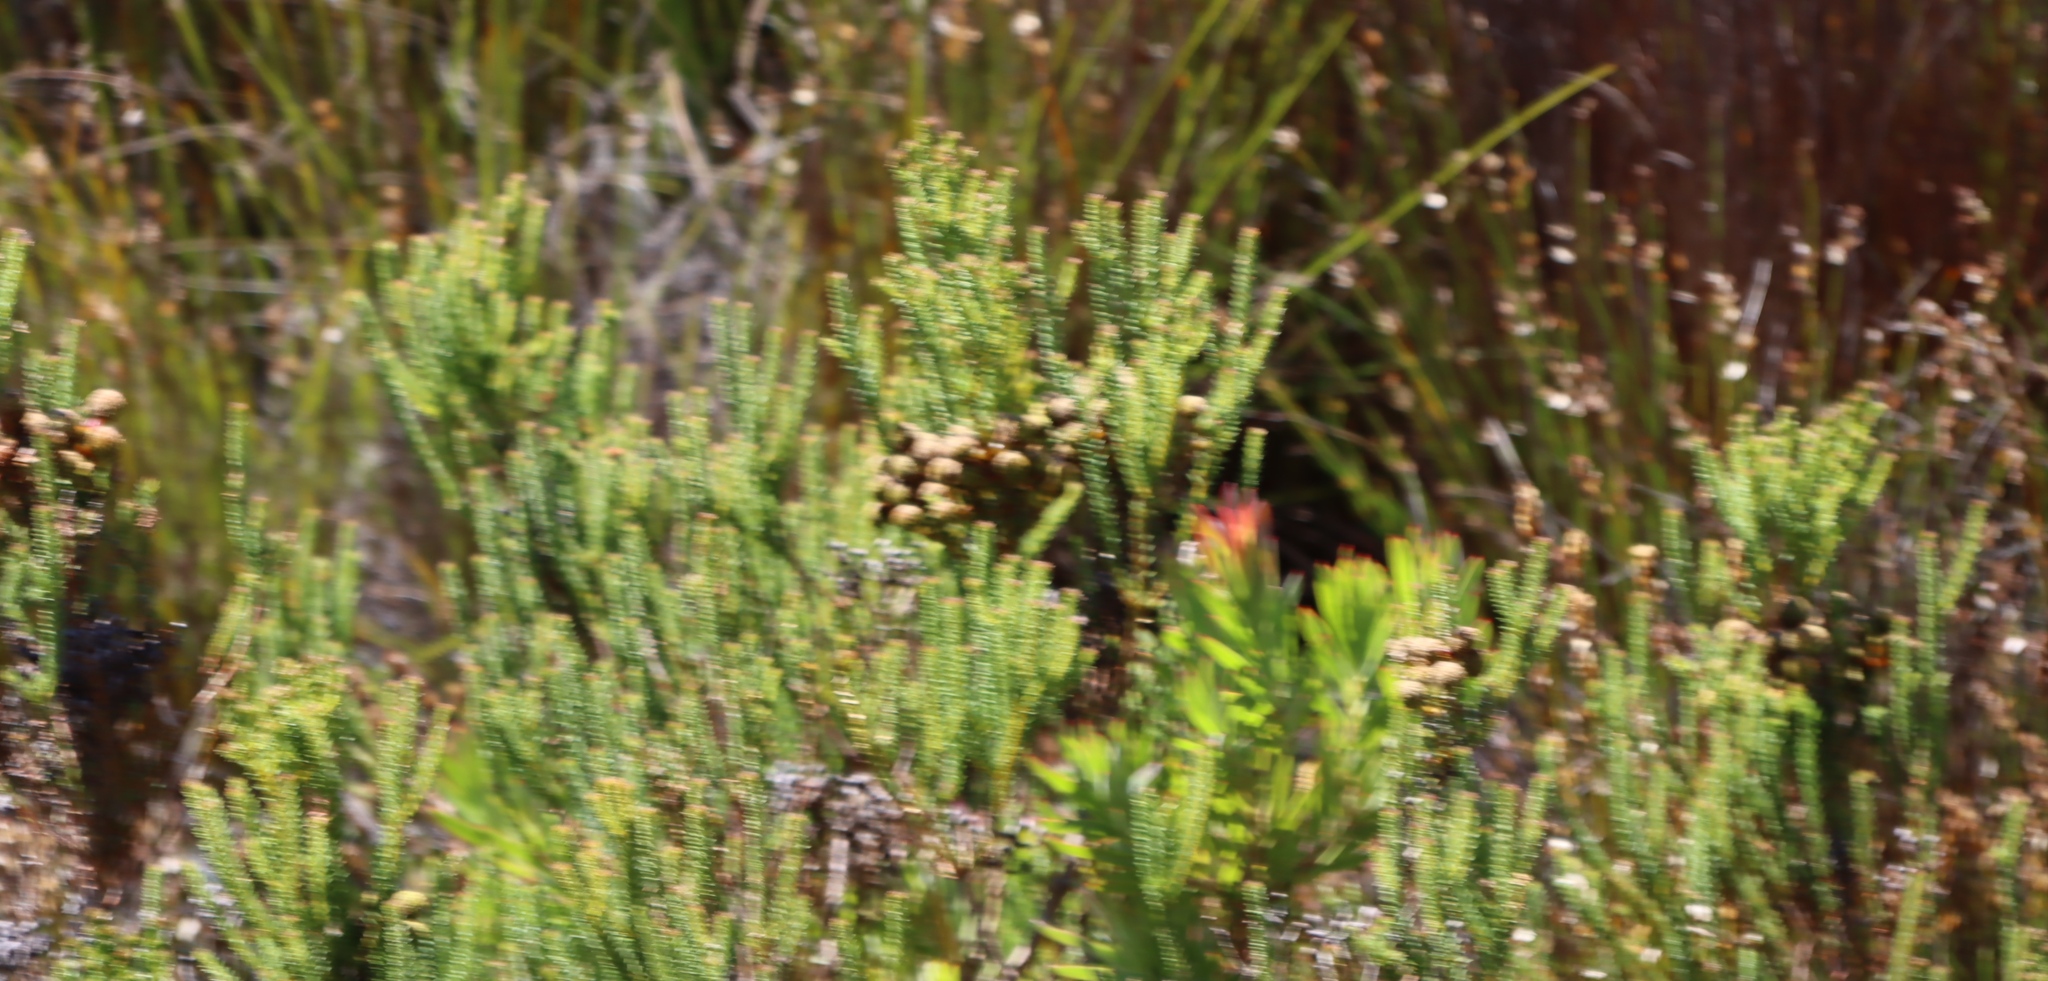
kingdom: Plantae
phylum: Tracheophyta
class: Magnoliopsida
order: Bruniales
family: Bruniaceae
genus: Berzelia
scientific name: Berzelia abrotanoides
